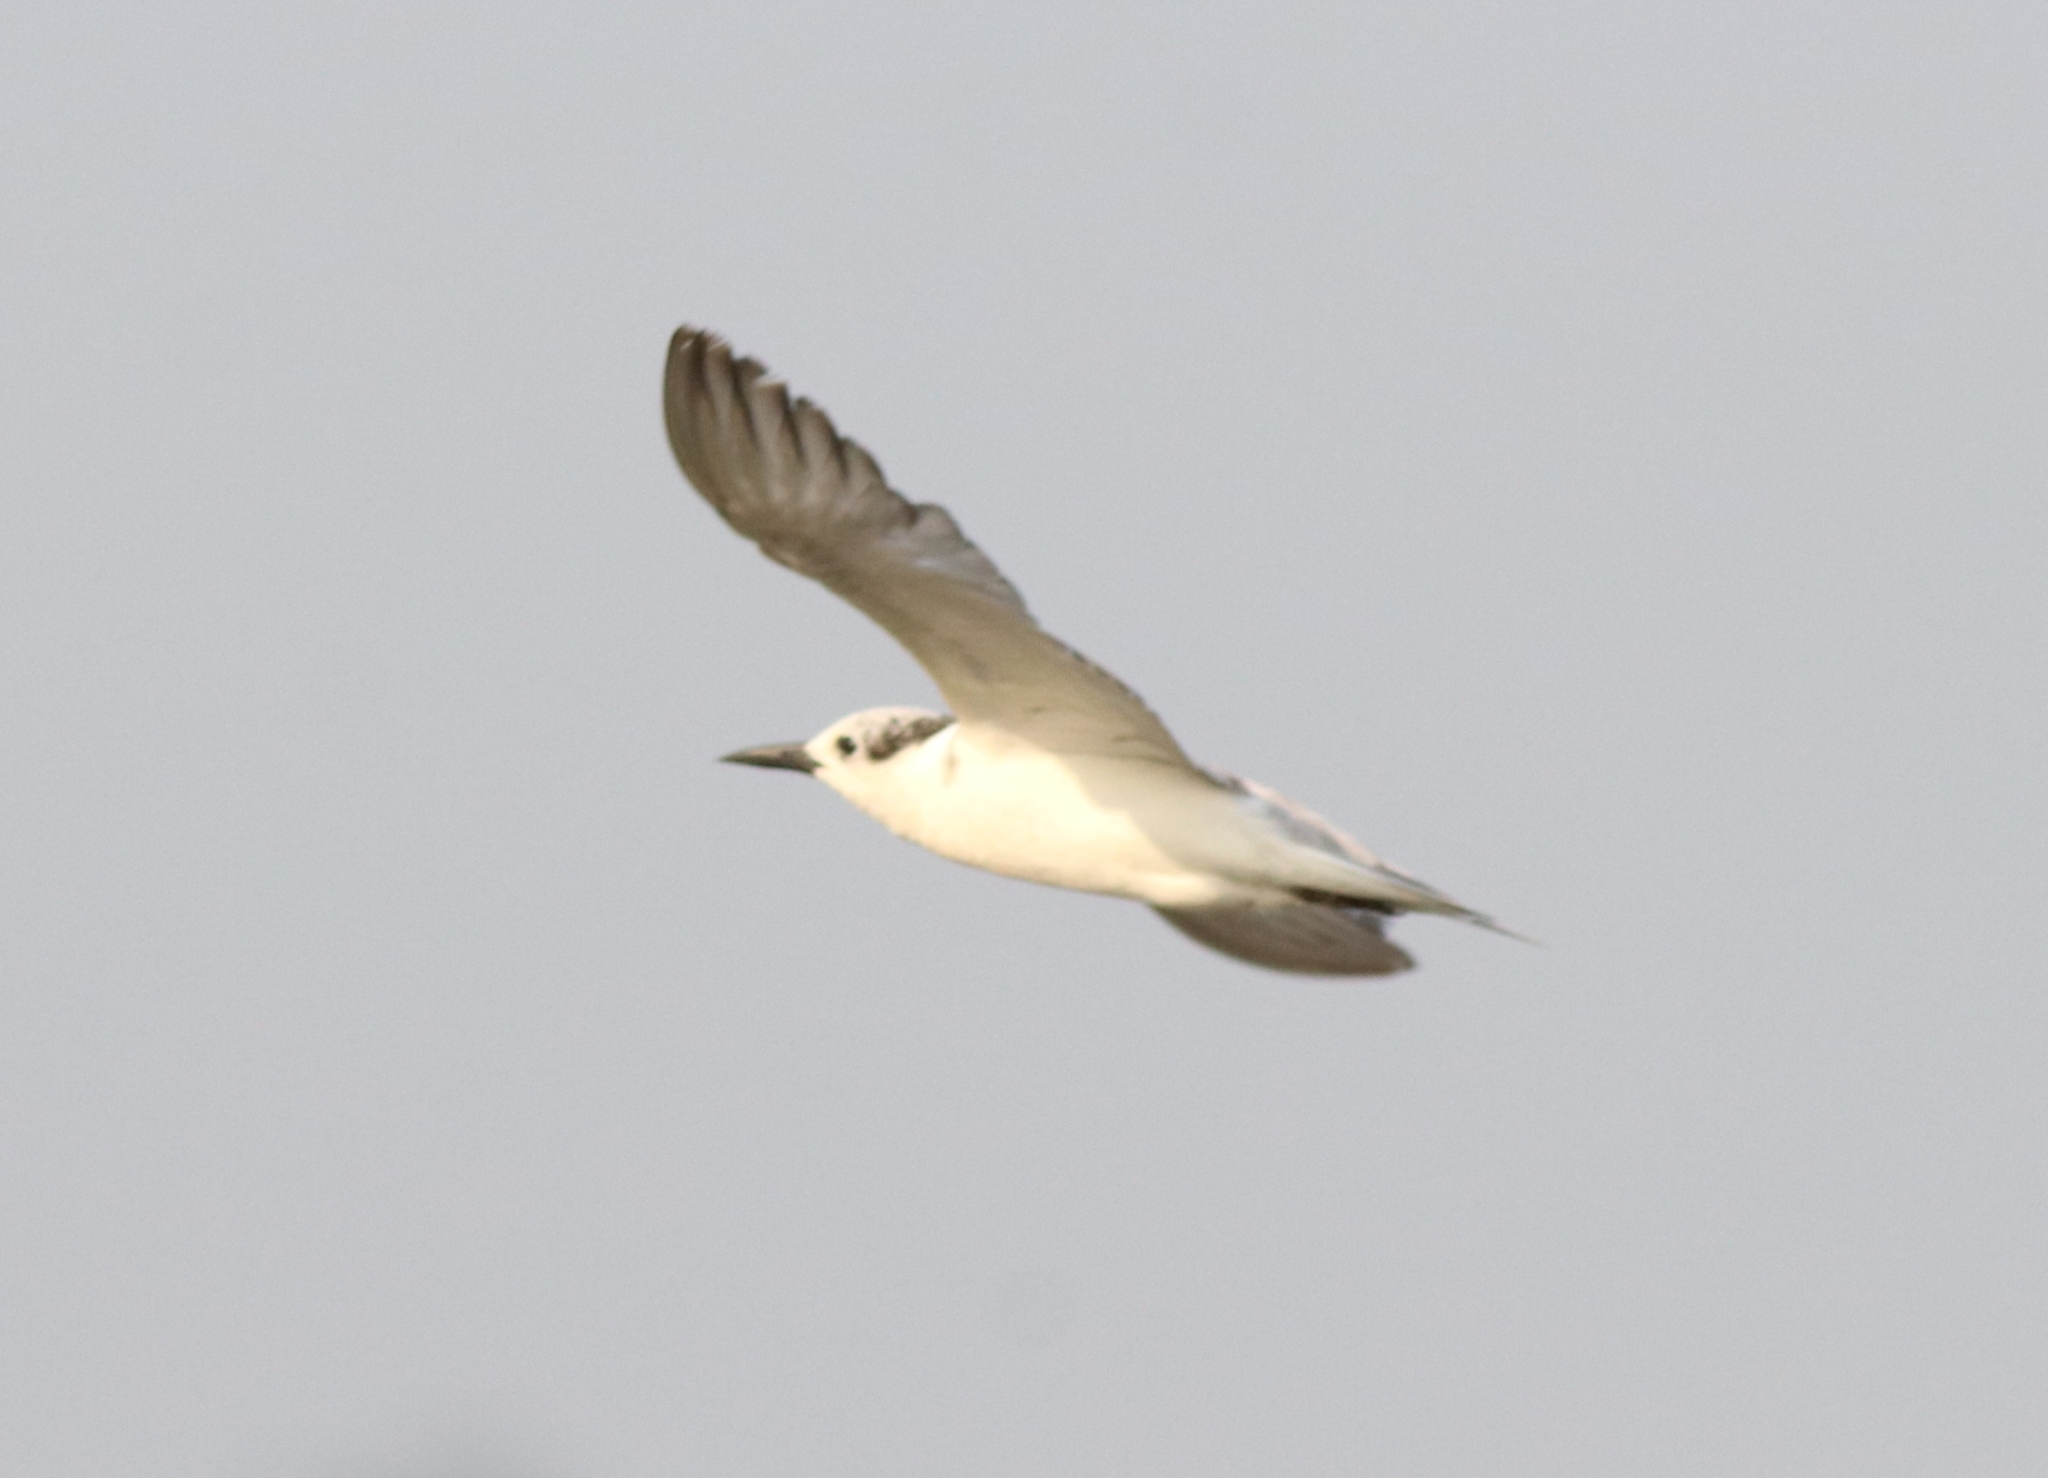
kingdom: Animalia
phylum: Chordata
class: Aves
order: Charadriiformes
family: Laridae
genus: Chlidonias
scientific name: Chlidonias hybrida
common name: Whiskered tern
